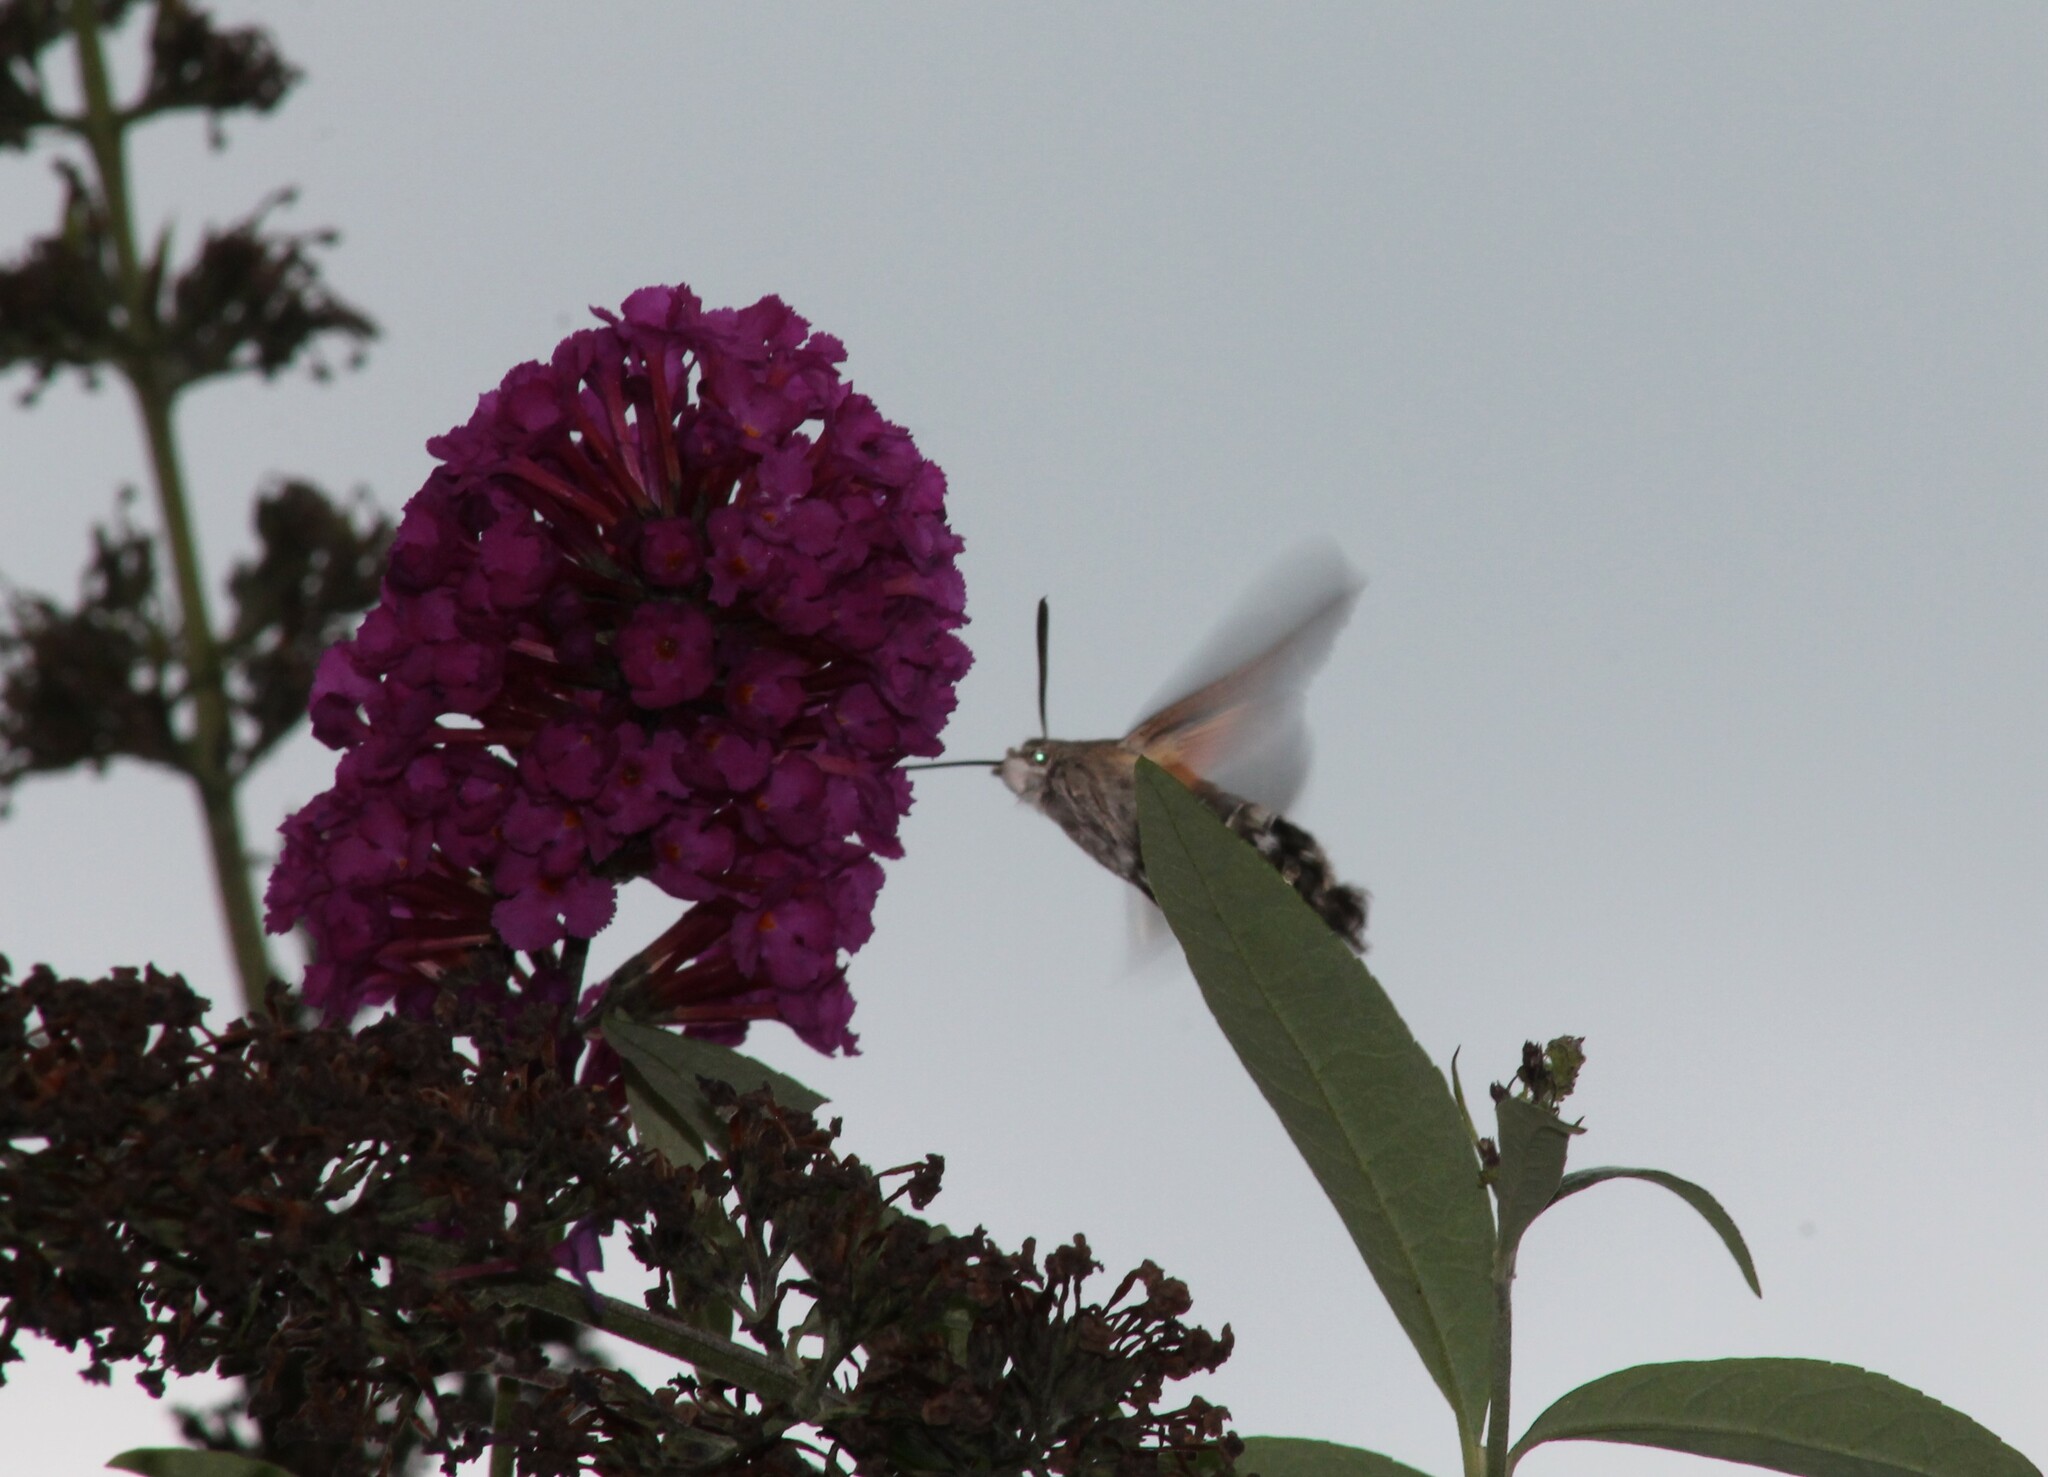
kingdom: Animalia
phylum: Arthropoda
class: Insecta
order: Lepidoptera
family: Sphingidae
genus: Macroglossum
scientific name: Macroglossum stellatarum
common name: Humming-bird hawk-moth
